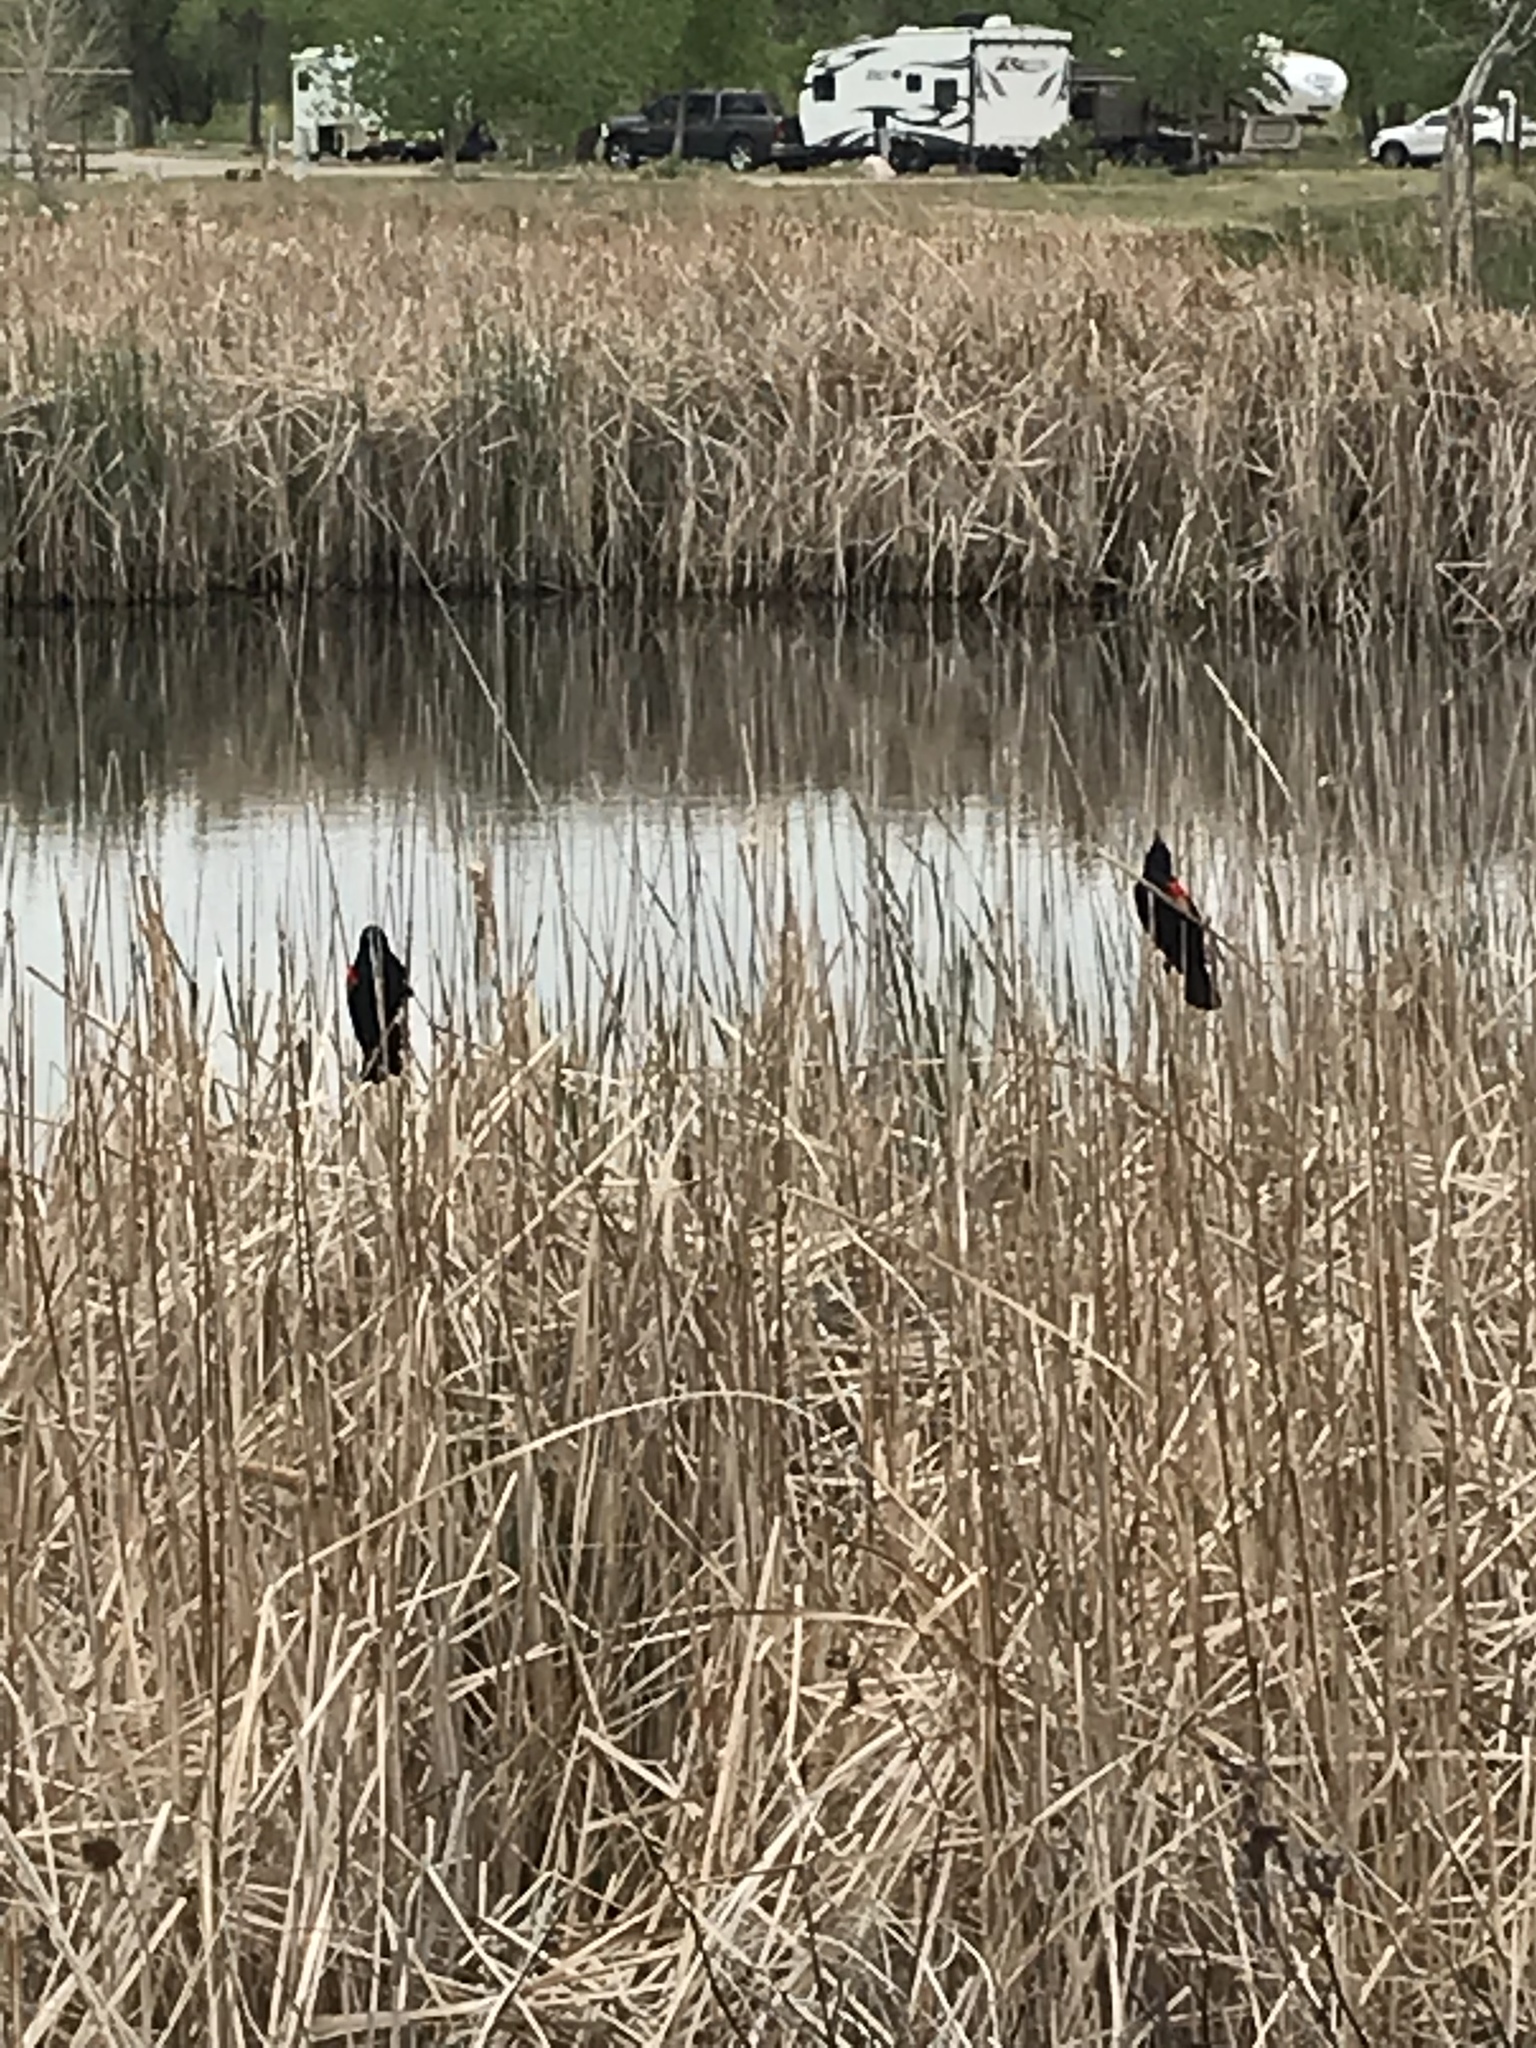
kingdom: Animalia
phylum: Chordata
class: Aves
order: Passeriformes
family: Icteridae
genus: Agelaius
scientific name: Agelaius phoeniceus
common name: Red-winged blackbird
